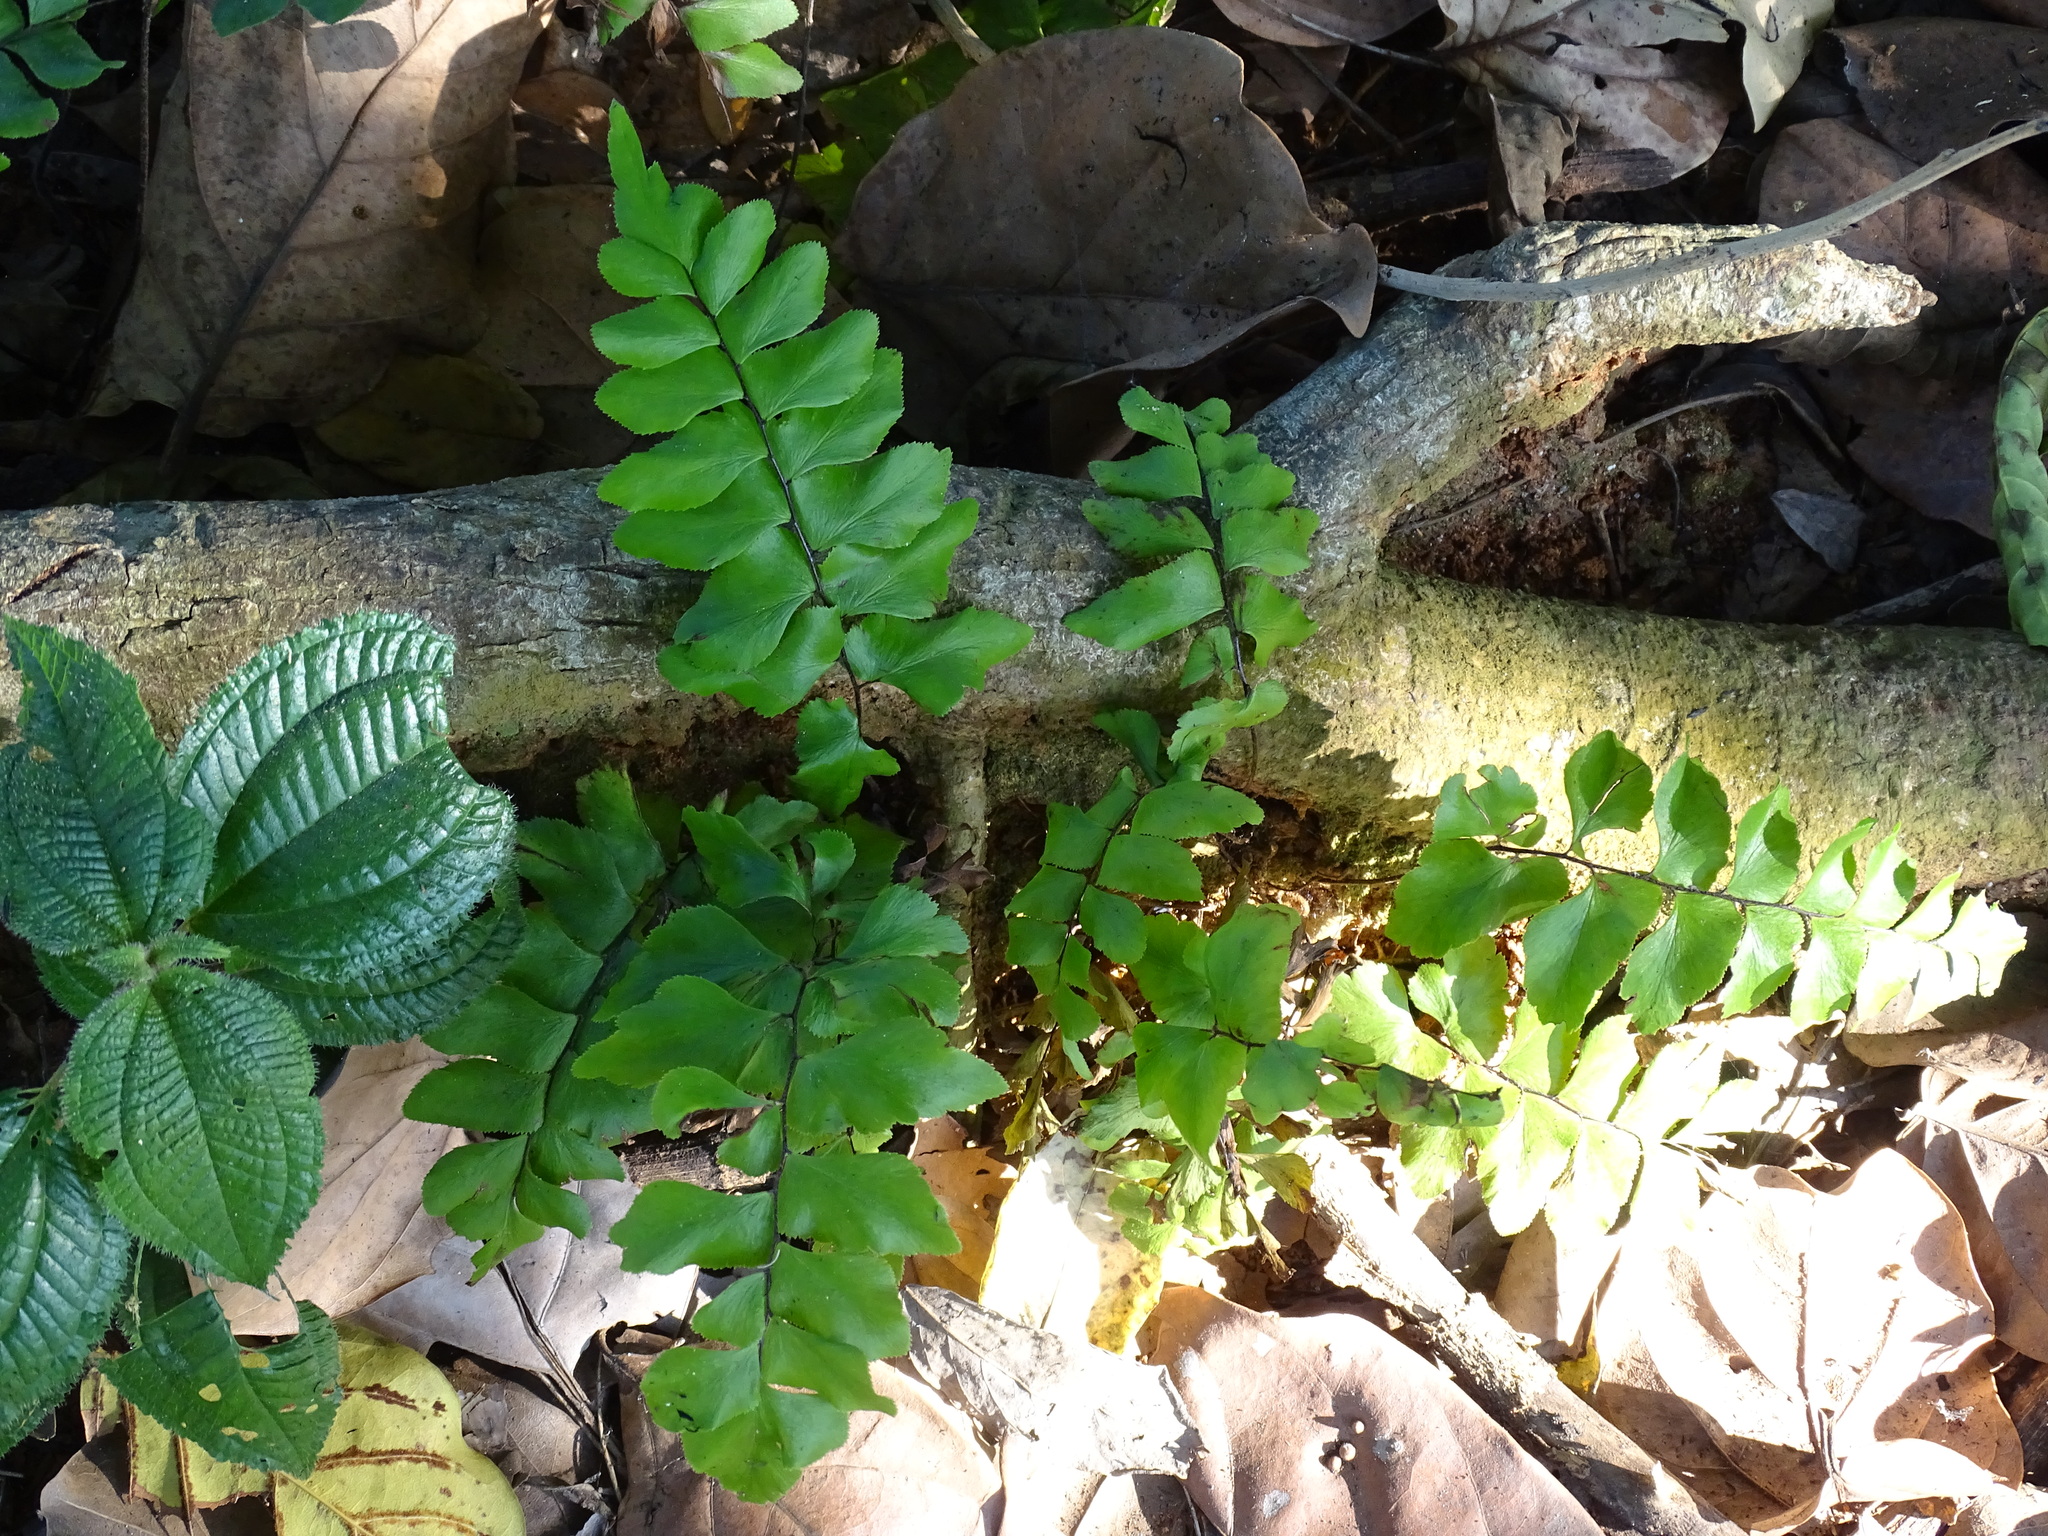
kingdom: Plantae
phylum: Tracheophyta
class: Polypodiopsida
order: Polypodiales
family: Pteridaceae
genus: Adiantum
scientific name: Adiantum mcvaughii
